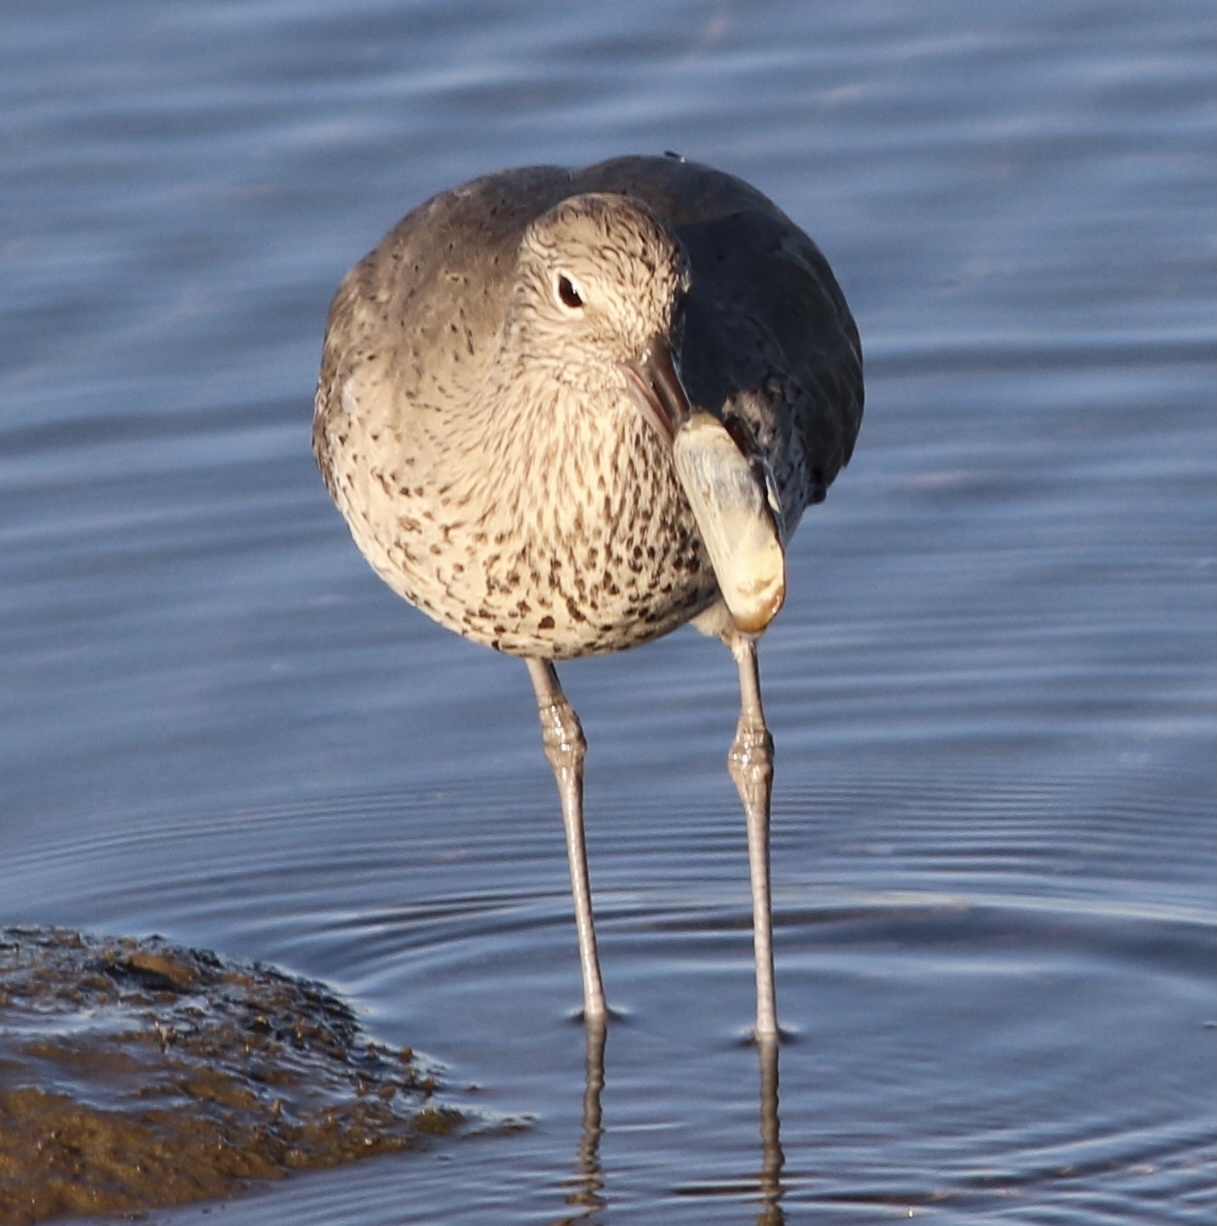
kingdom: Animalia
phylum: Mollusca
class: Bivalvia
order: Cardiida
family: Solecurtidae
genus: Tagelus
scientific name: Tagelus californianus
